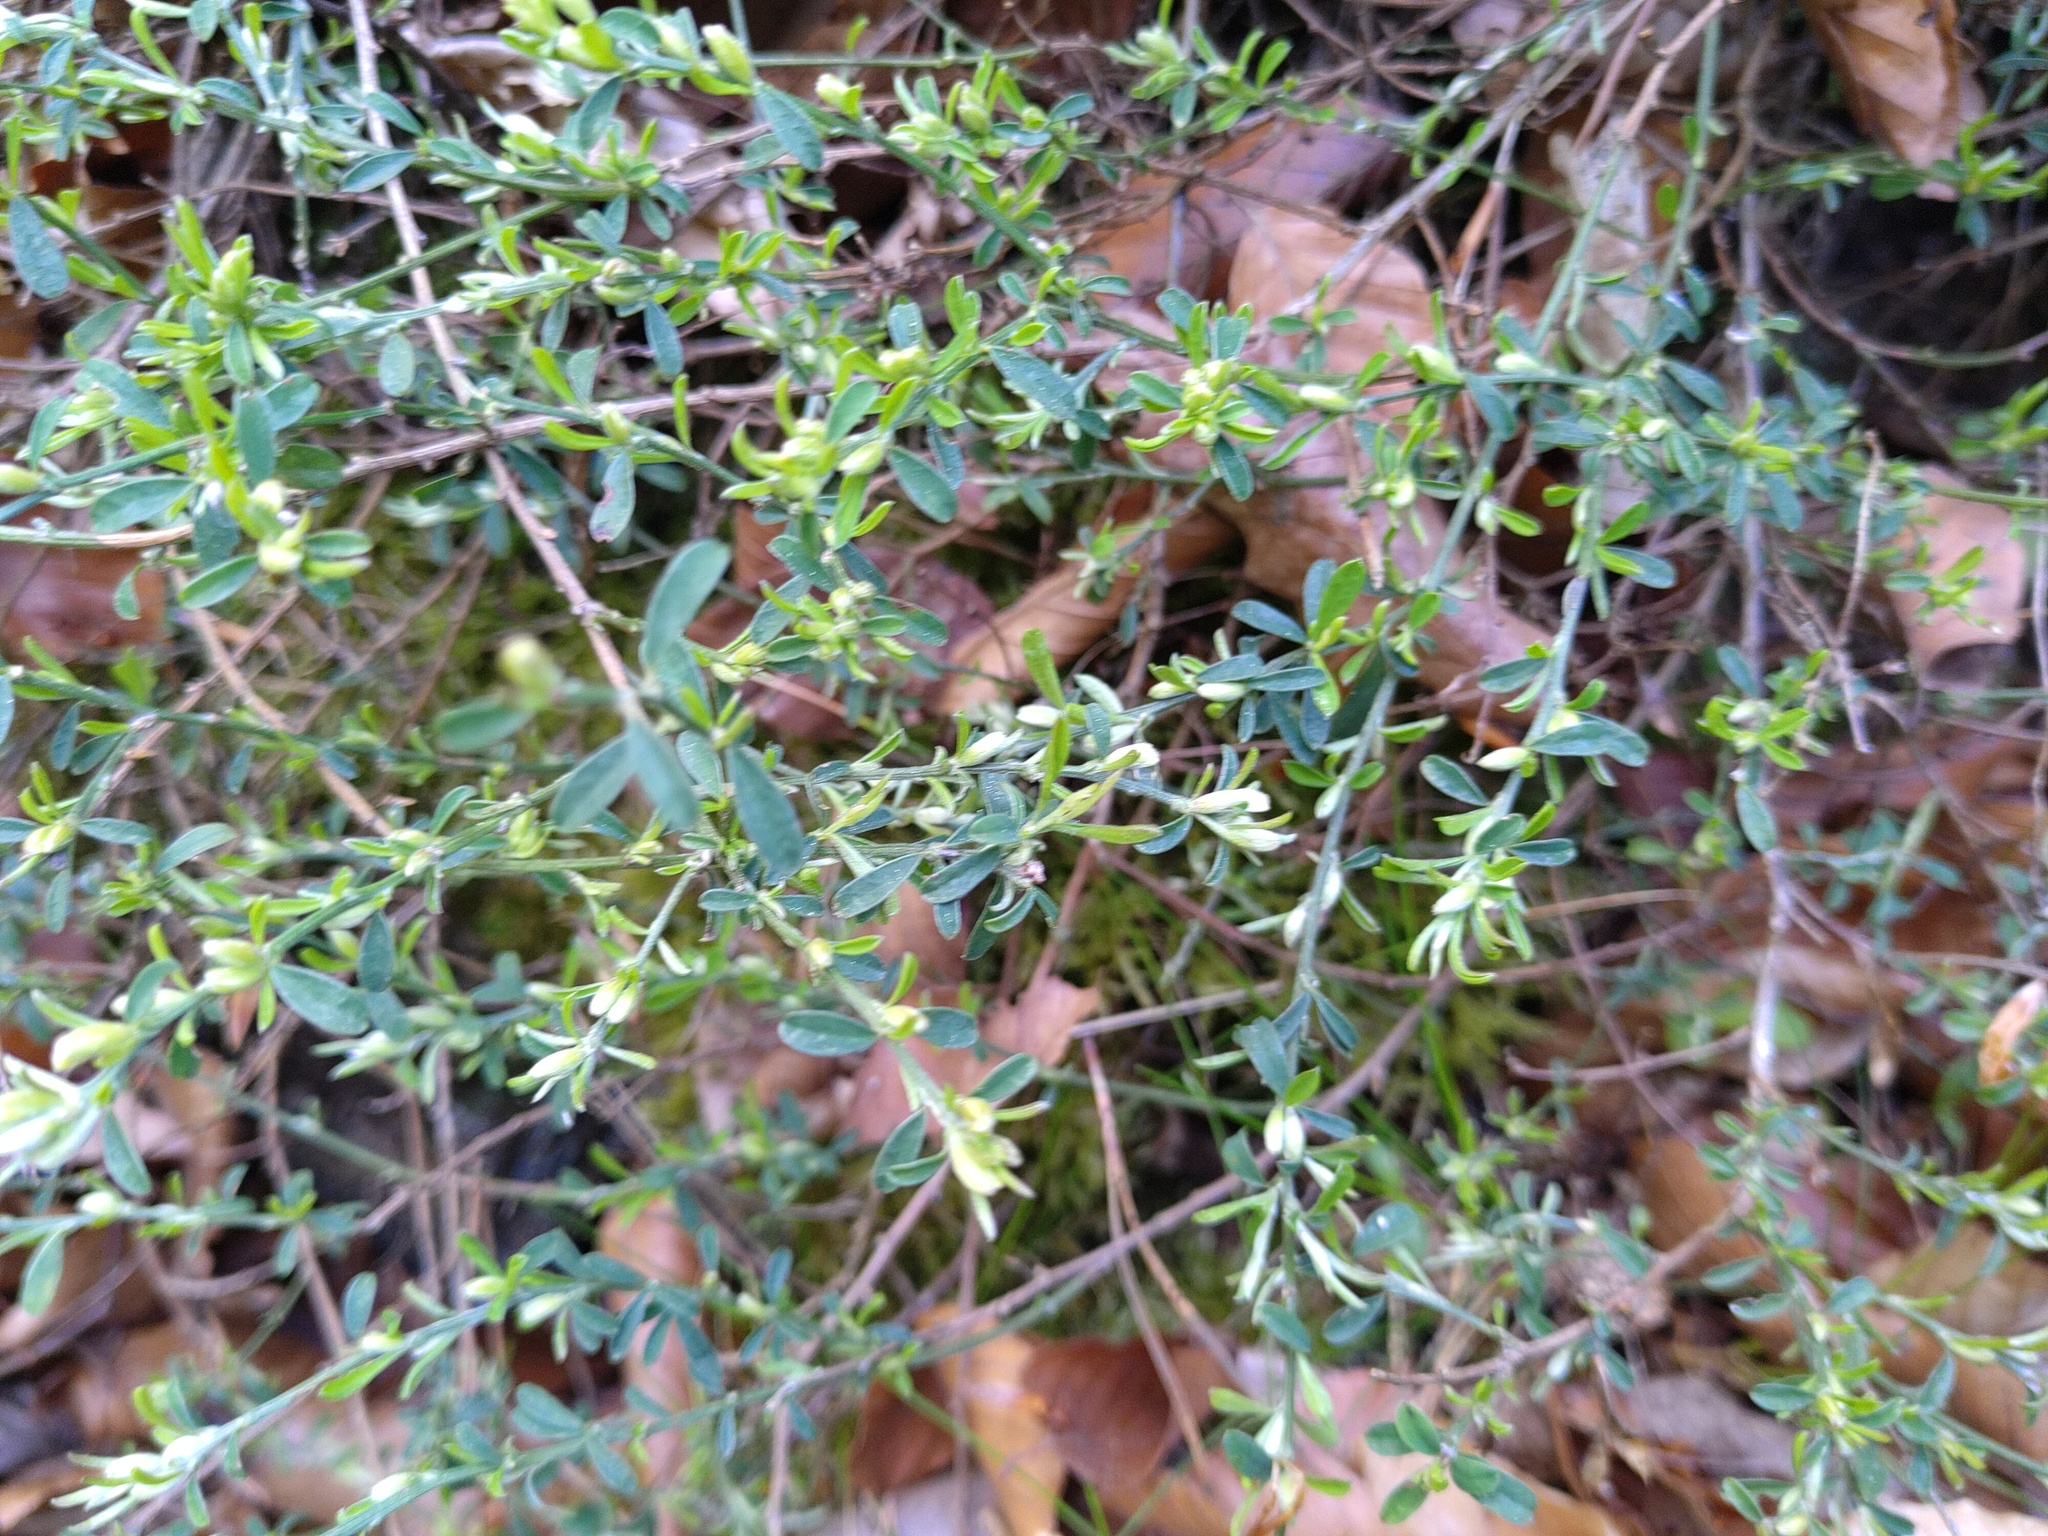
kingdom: Plantae
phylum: Tracheophyta
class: Magnoliopsida
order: Fabales
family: Fabaceae
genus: Genista
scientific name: Genista pilosa
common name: Hairy greenweed
